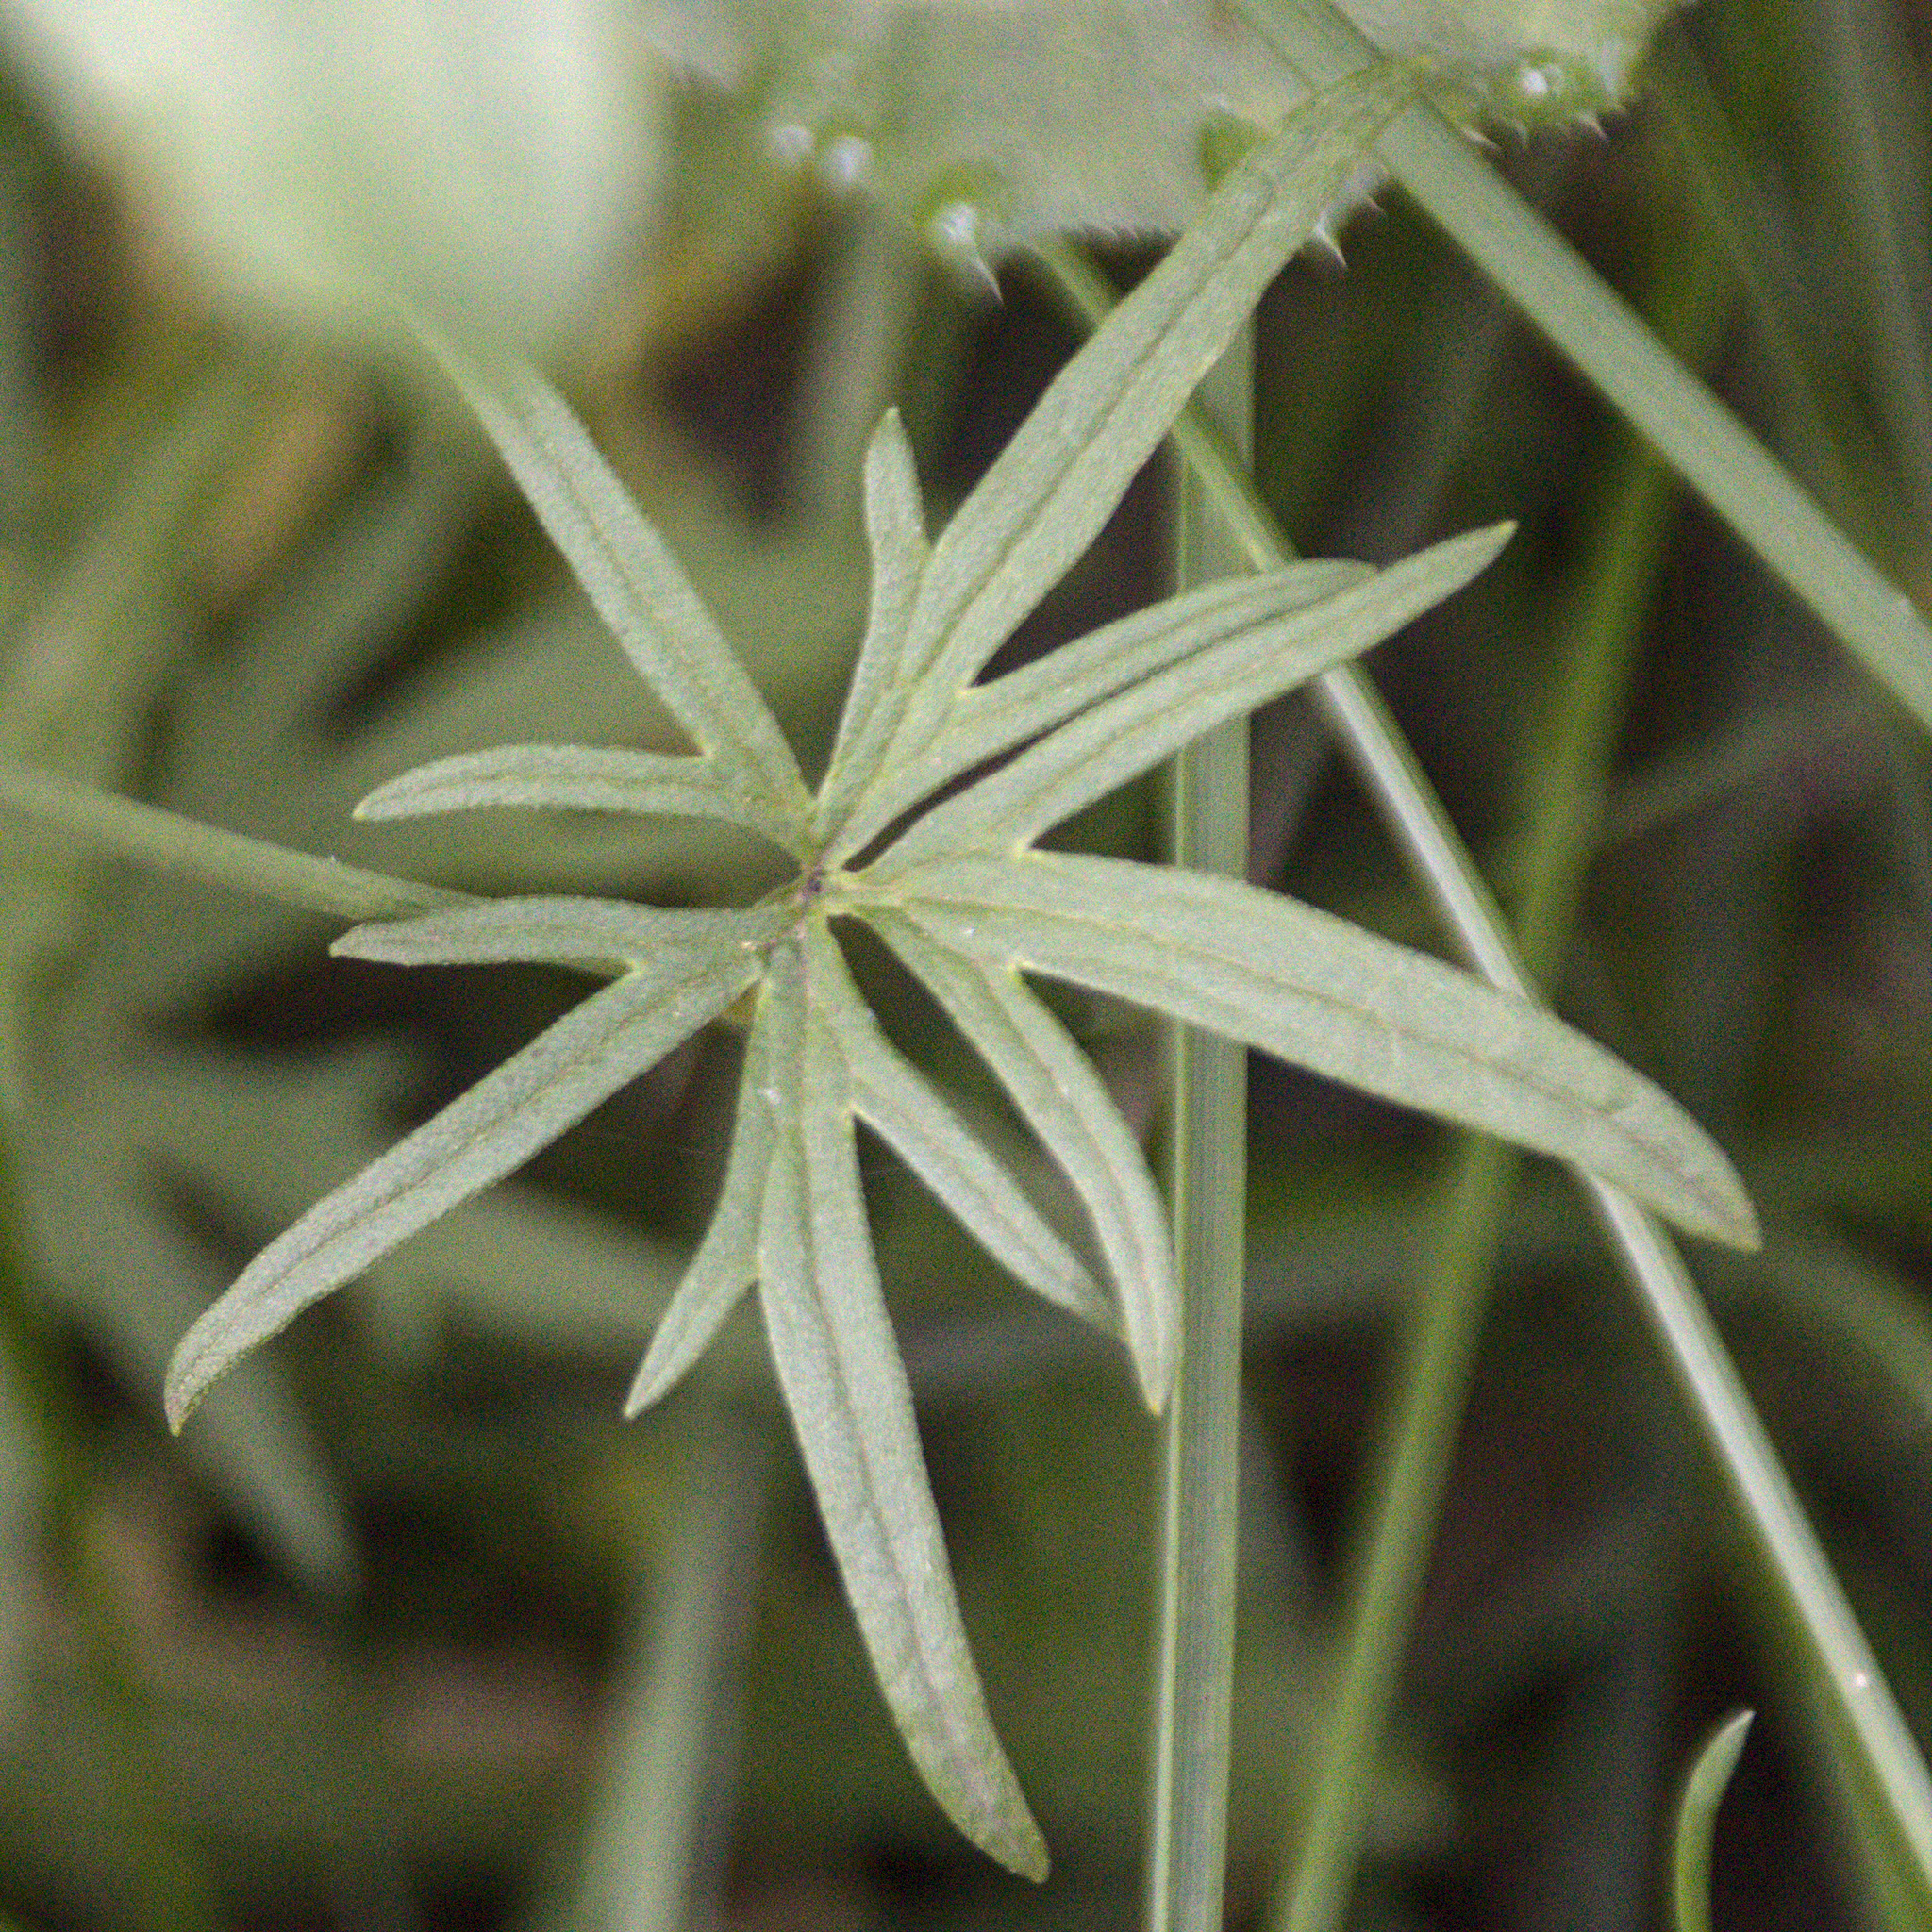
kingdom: Plantae
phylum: Tracheophyta
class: Magnoliopsida
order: Ranunculales
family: Ranunculaceae
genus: Ranunculus
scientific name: Ranunculus acris
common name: Meadow buttercup
